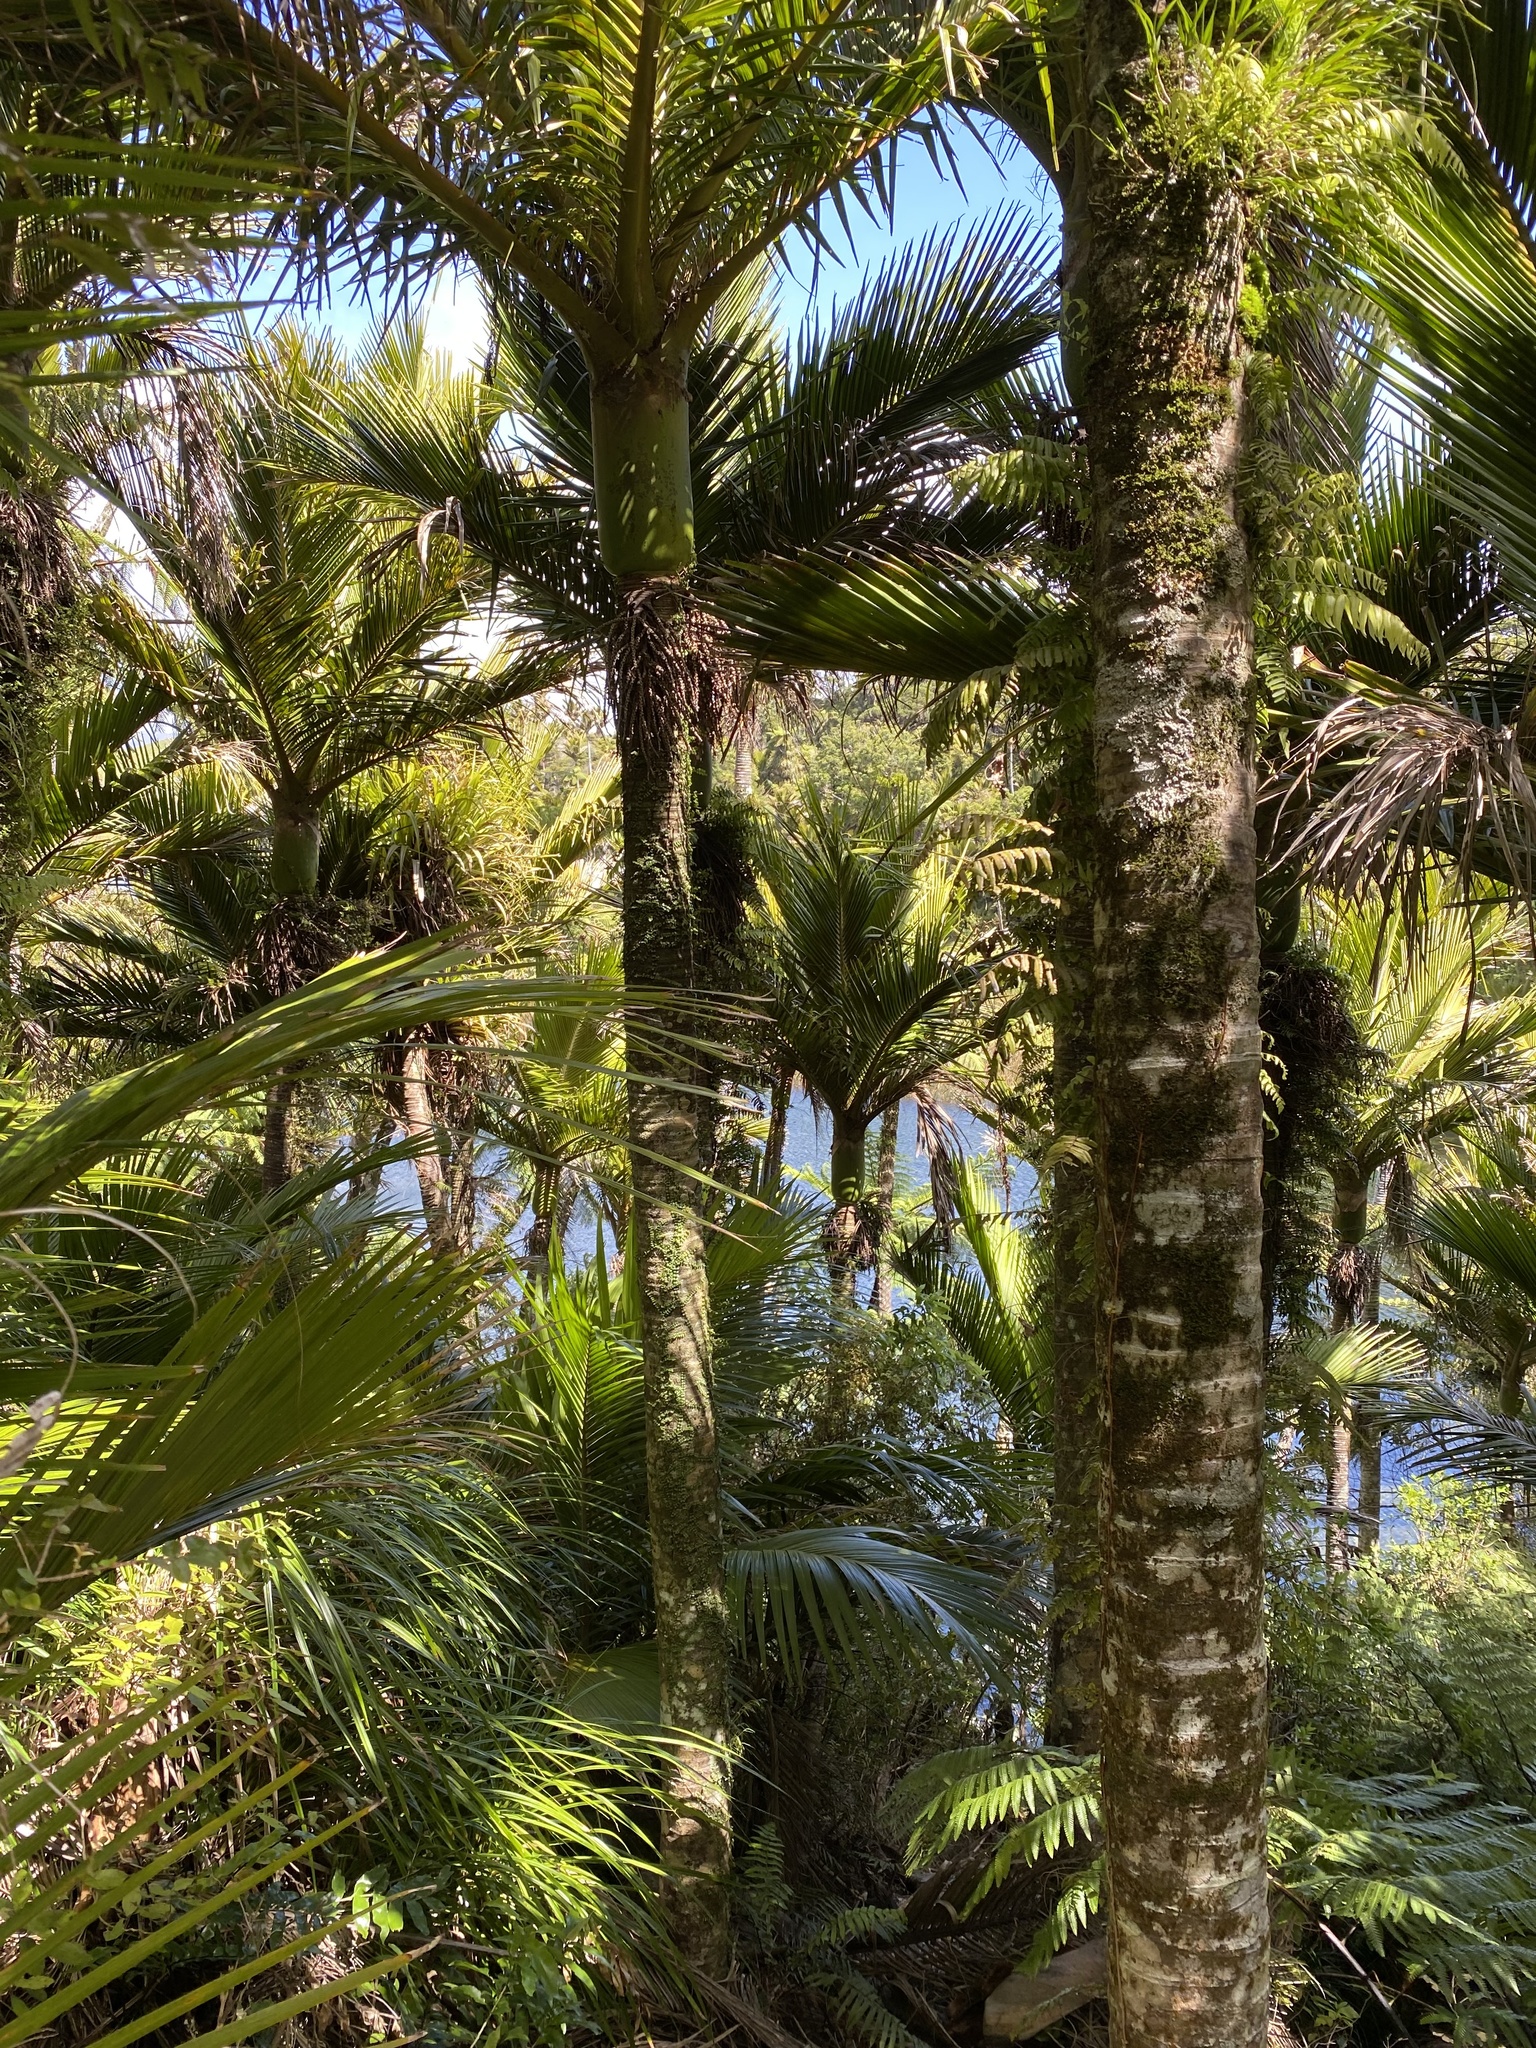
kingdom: Plantae
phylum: Tracheophyta
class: Liliopsida
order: Arecales
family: Arecaceae
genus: Rhopalostylis
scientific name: Rhopalostylis sapida
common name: Feather-duster palm
